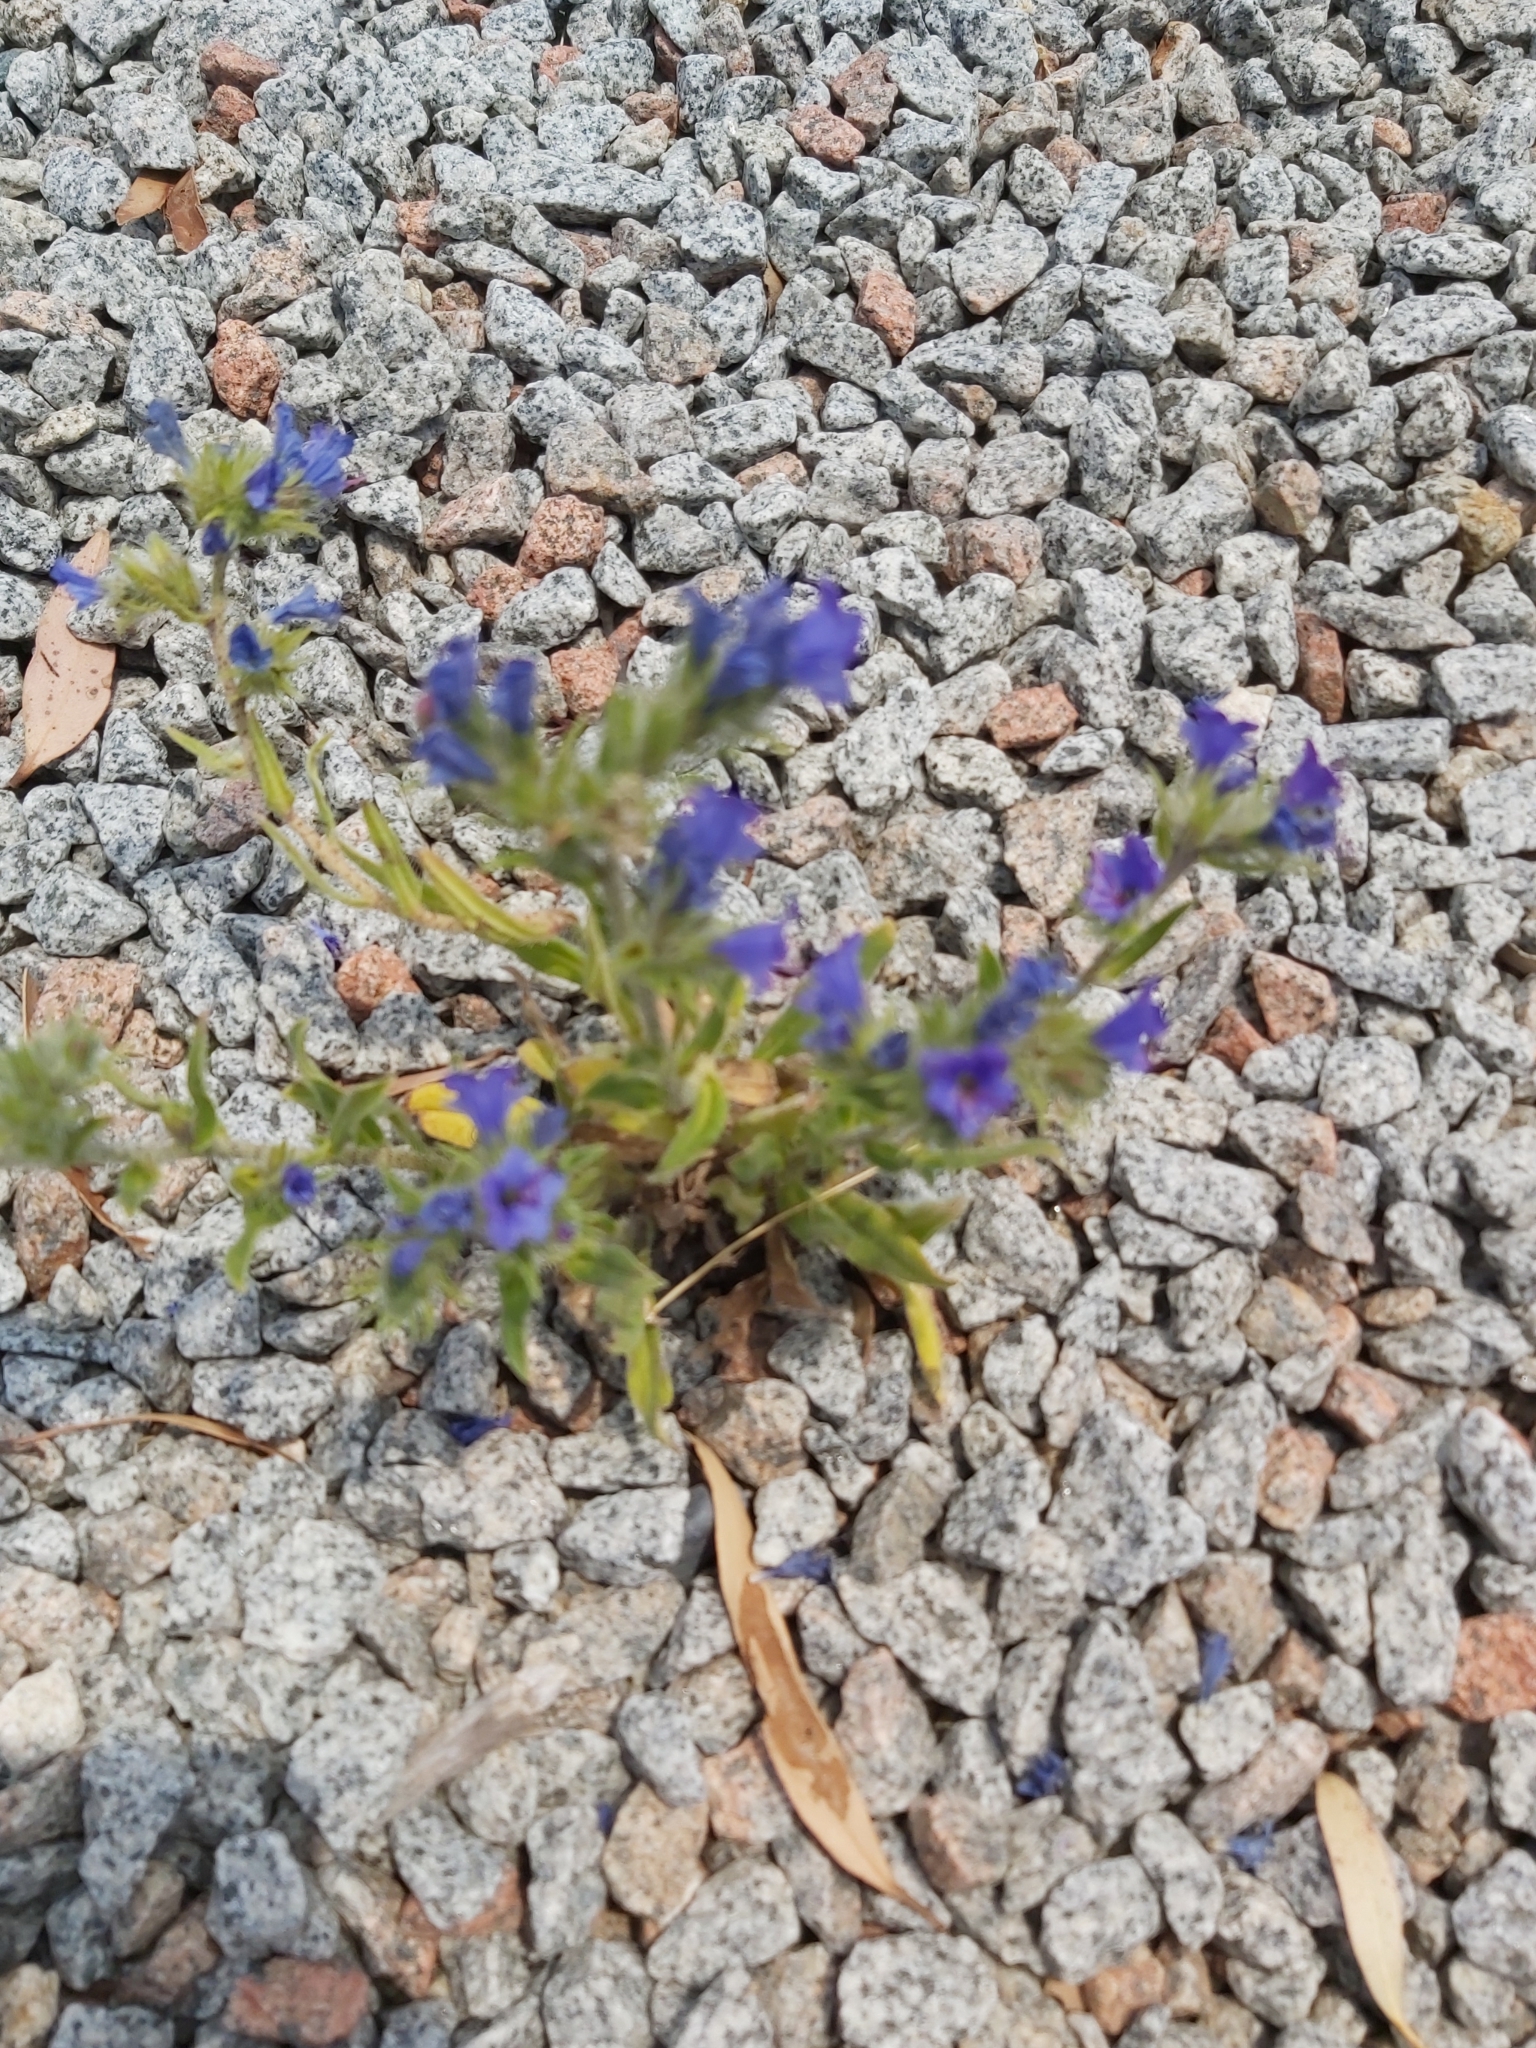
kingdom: Plantae
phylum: Tracheophyta
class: Magnoliopsida
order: Boraginales
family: Boraginaceae
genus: Echium
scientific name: Echium vulgare
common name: Common viper's bugloss
